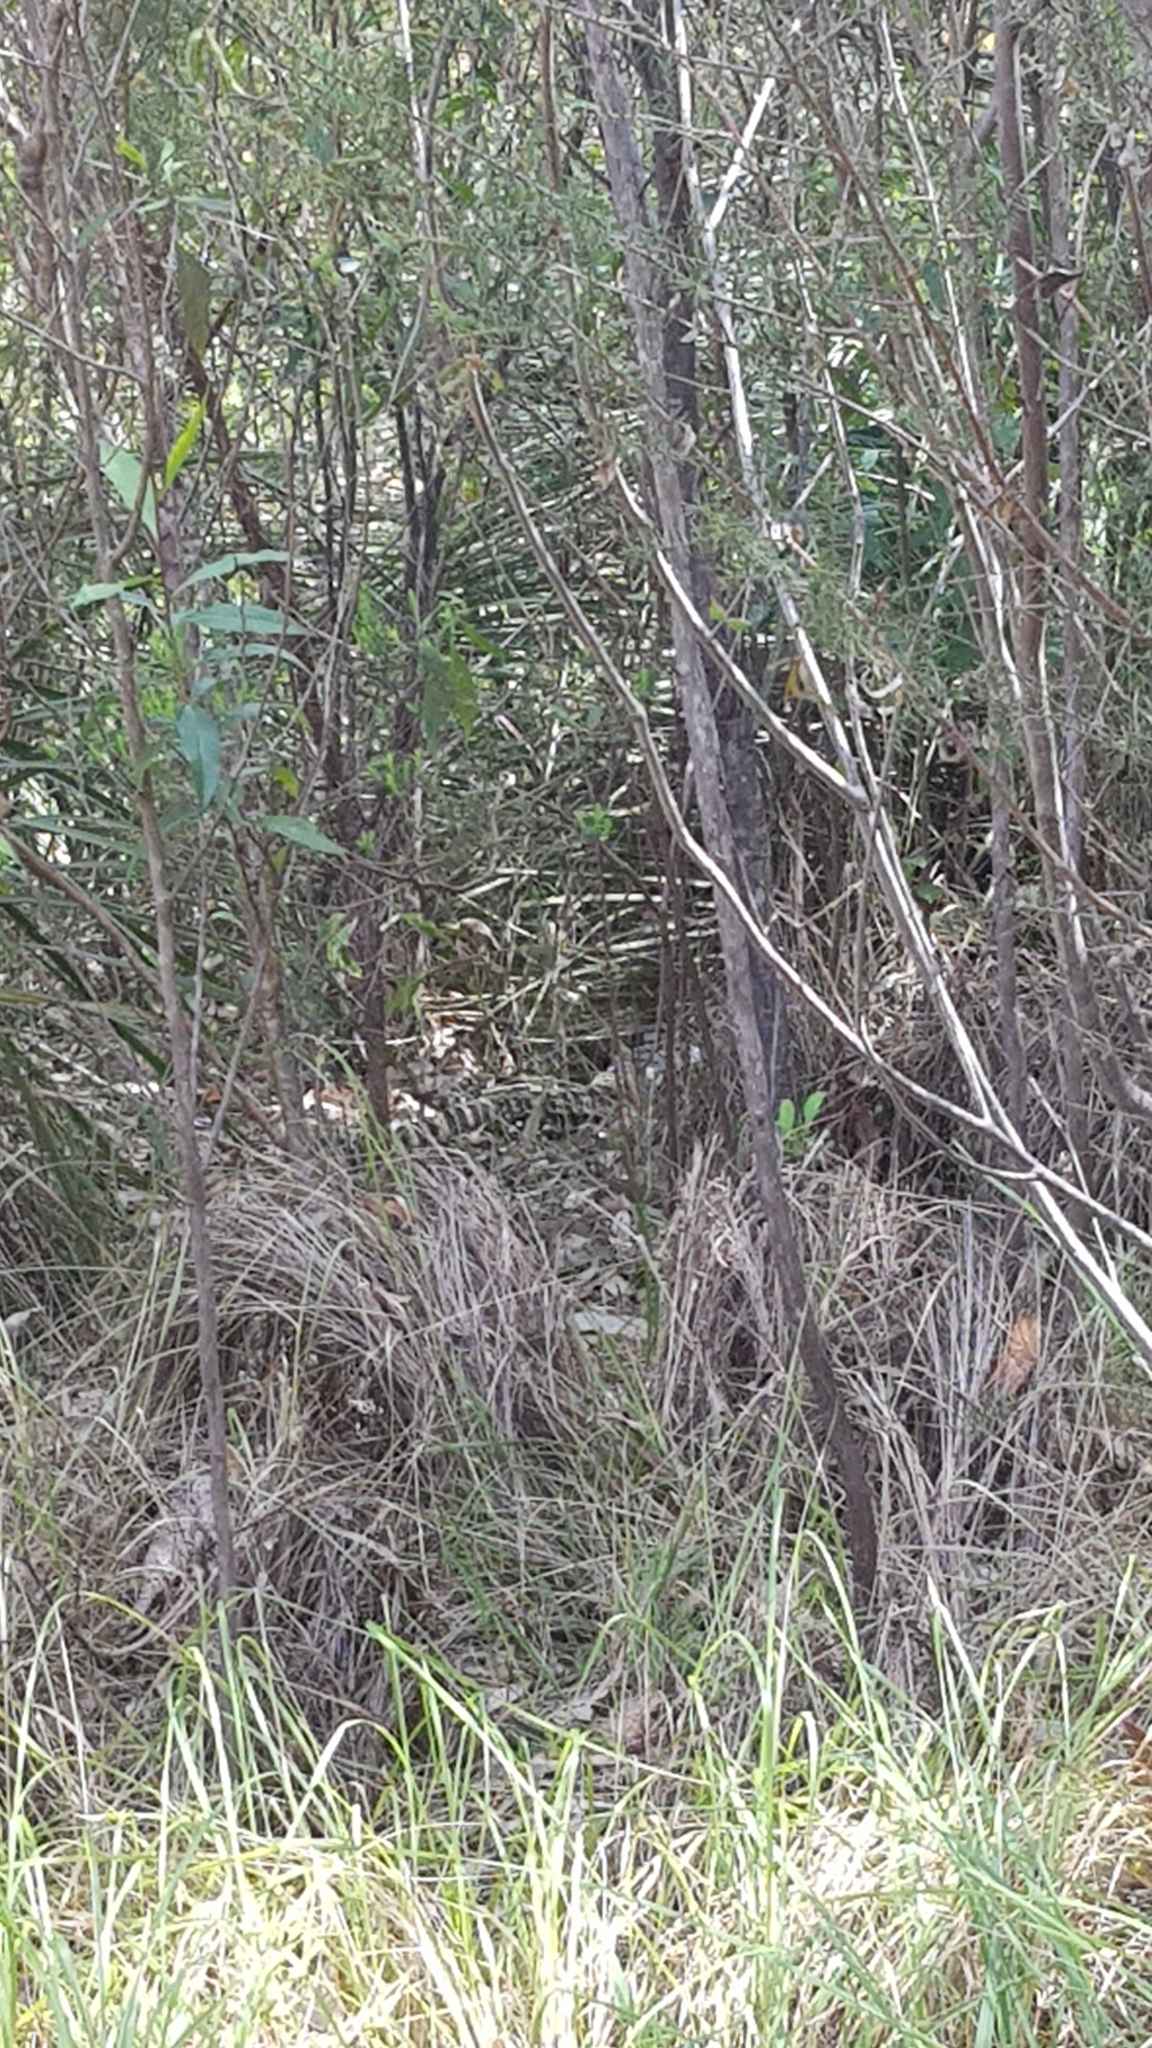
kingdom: Animalia
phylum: Chordata
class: Squamata
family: Varanidae
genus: Varanus
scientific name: Varanus varius
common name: Lace monitor
